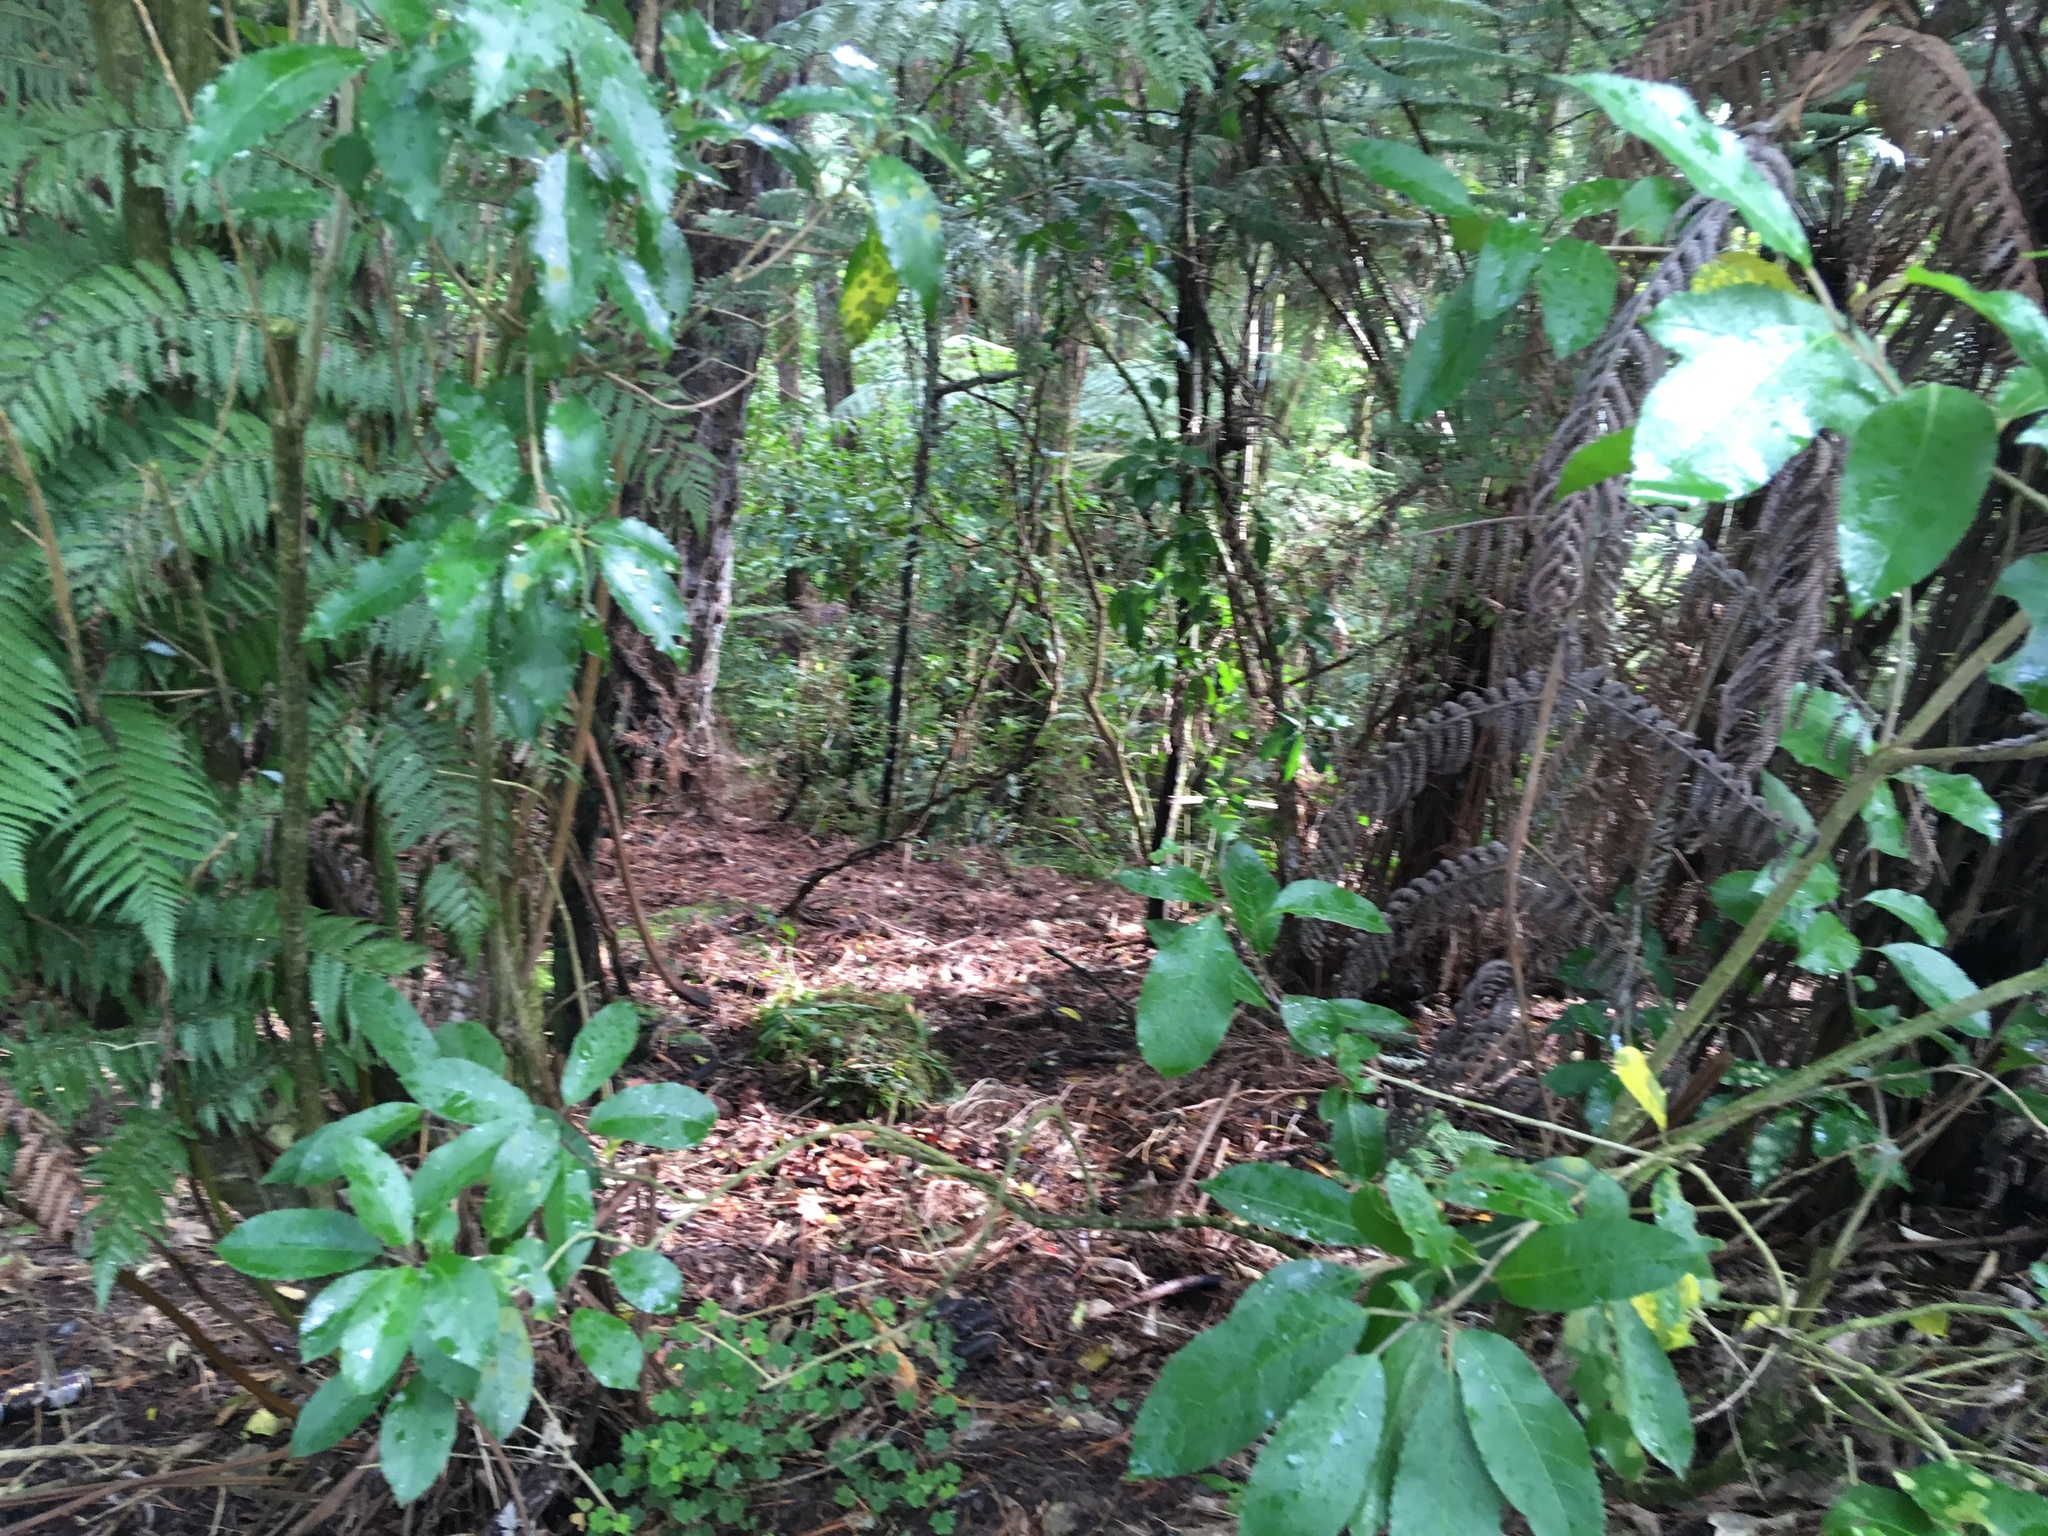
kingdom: Plantae
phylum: Tracheophyta
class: Magnoliopsida
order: Malpighiales
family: Violaceae
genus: Melicytus
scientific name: Melicytus ramiflorus
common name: Mahoe
